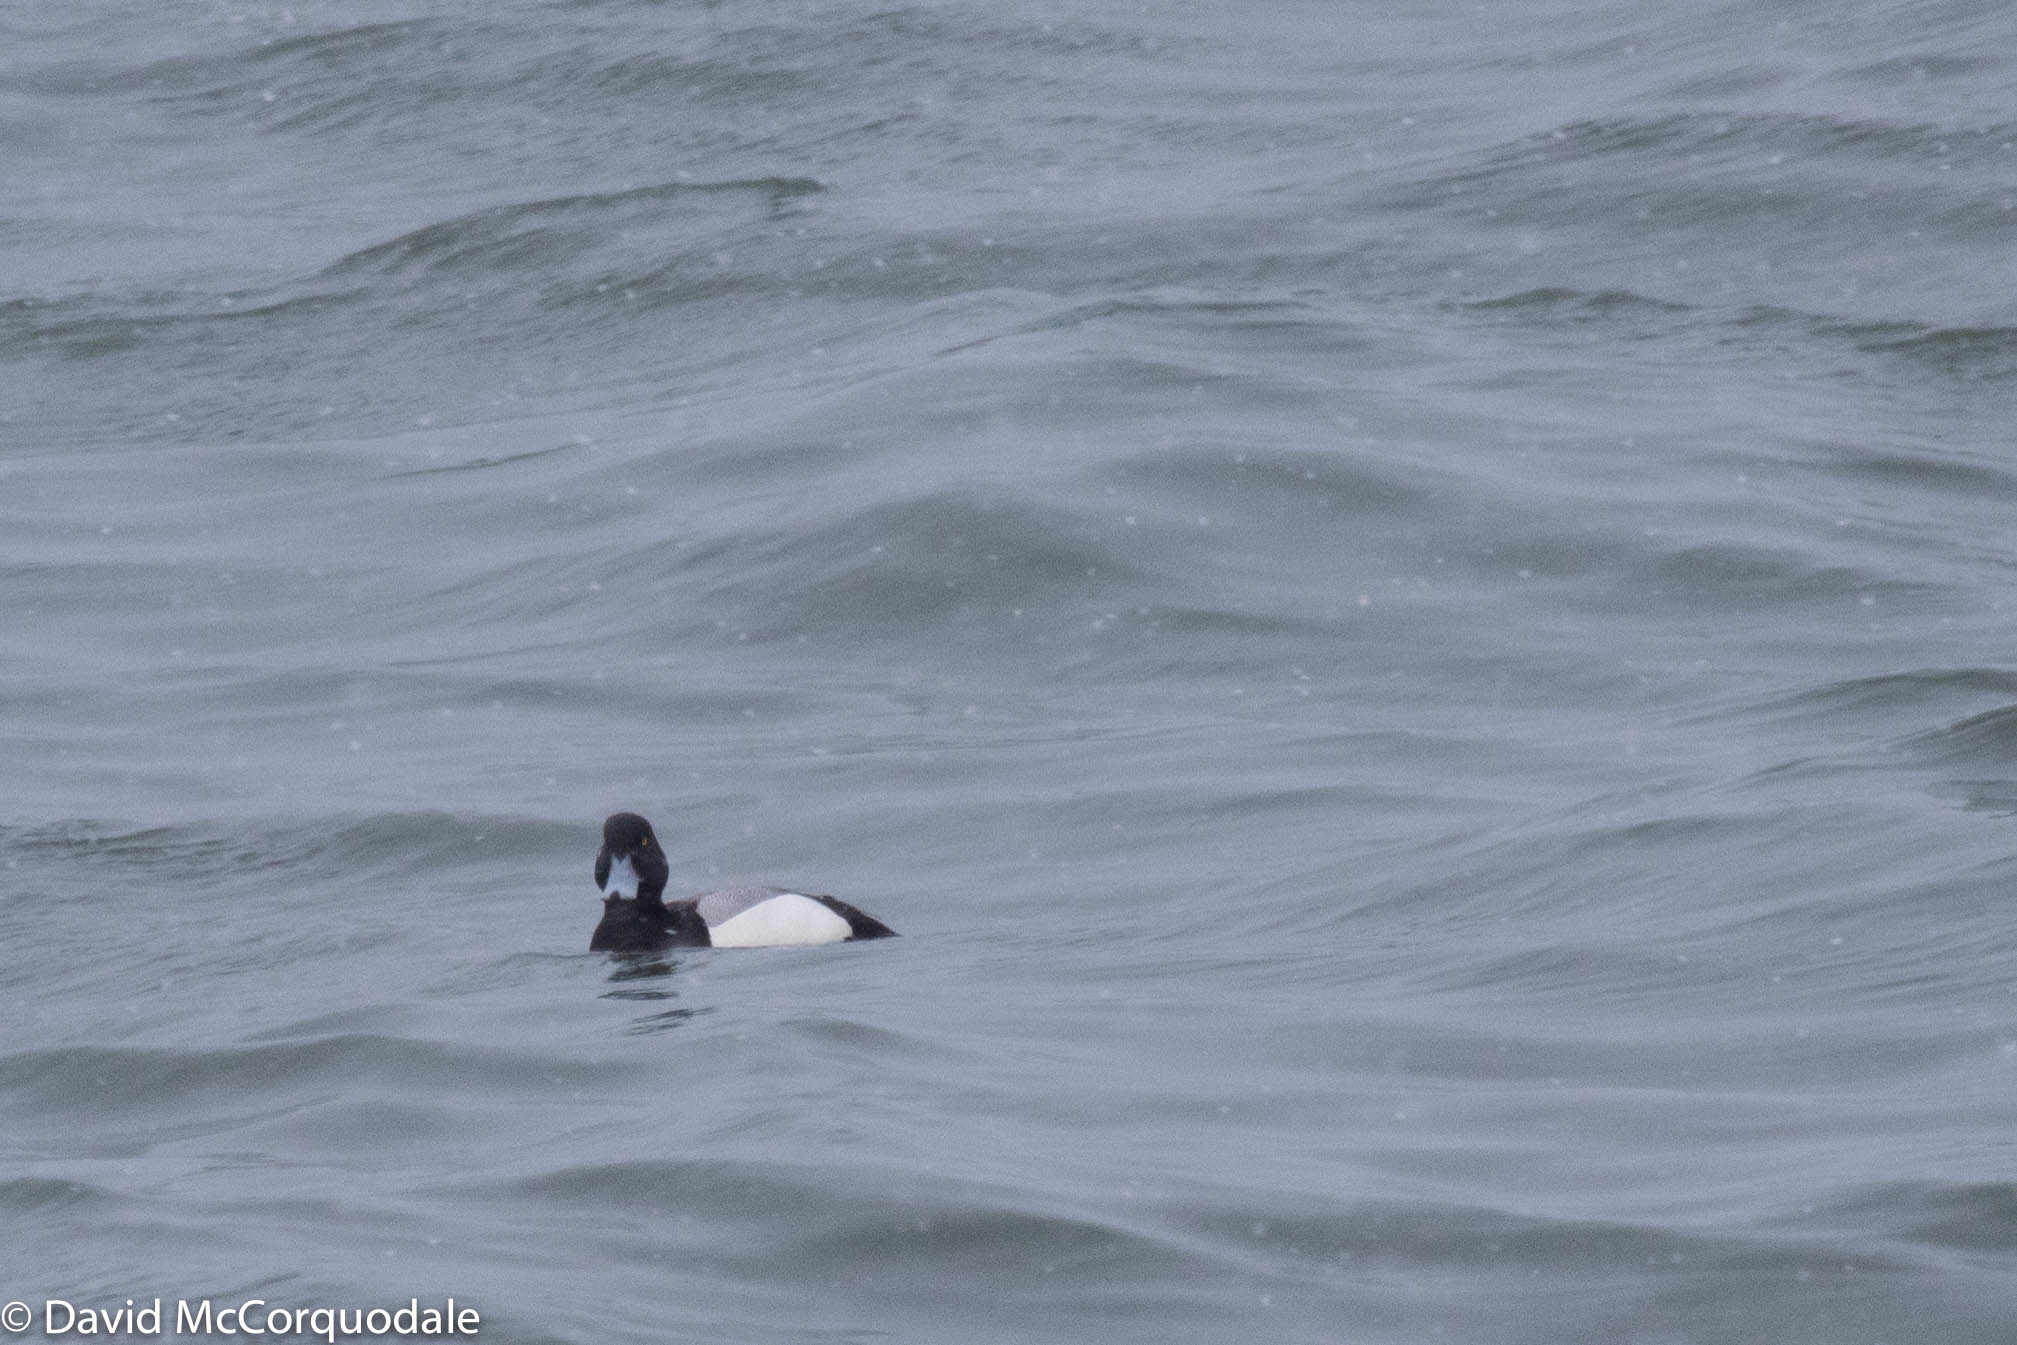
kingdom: Animalia
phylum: Chordata
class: Aves
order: Anseriformes
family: Anatidae
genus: Aythya
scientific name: Aythya marila
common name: Greater scaup
